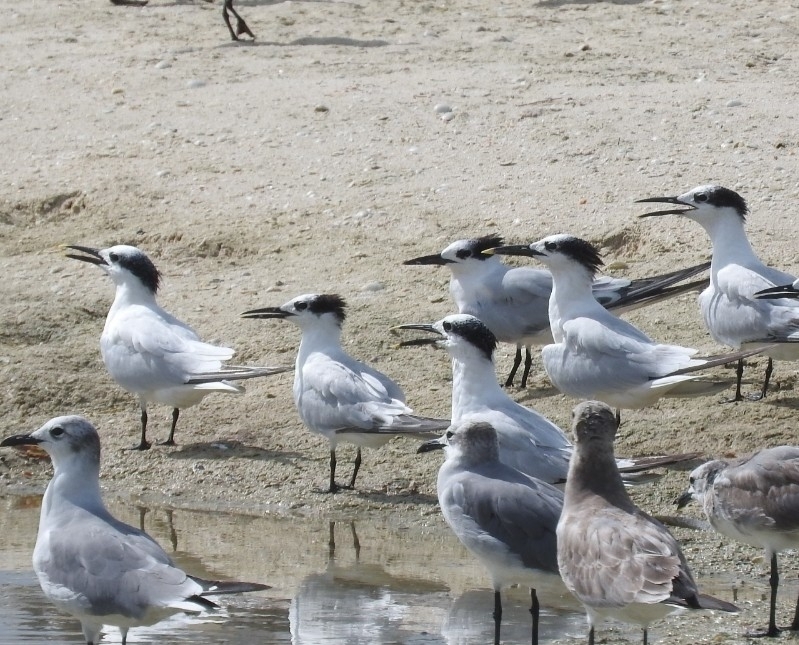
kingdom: Animalia
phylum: Chordata
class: Aves
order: Charadriiformes
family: Laridae
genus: Thalasseus
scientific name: Thalasseus sandvicensis
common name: Sandwich tern
